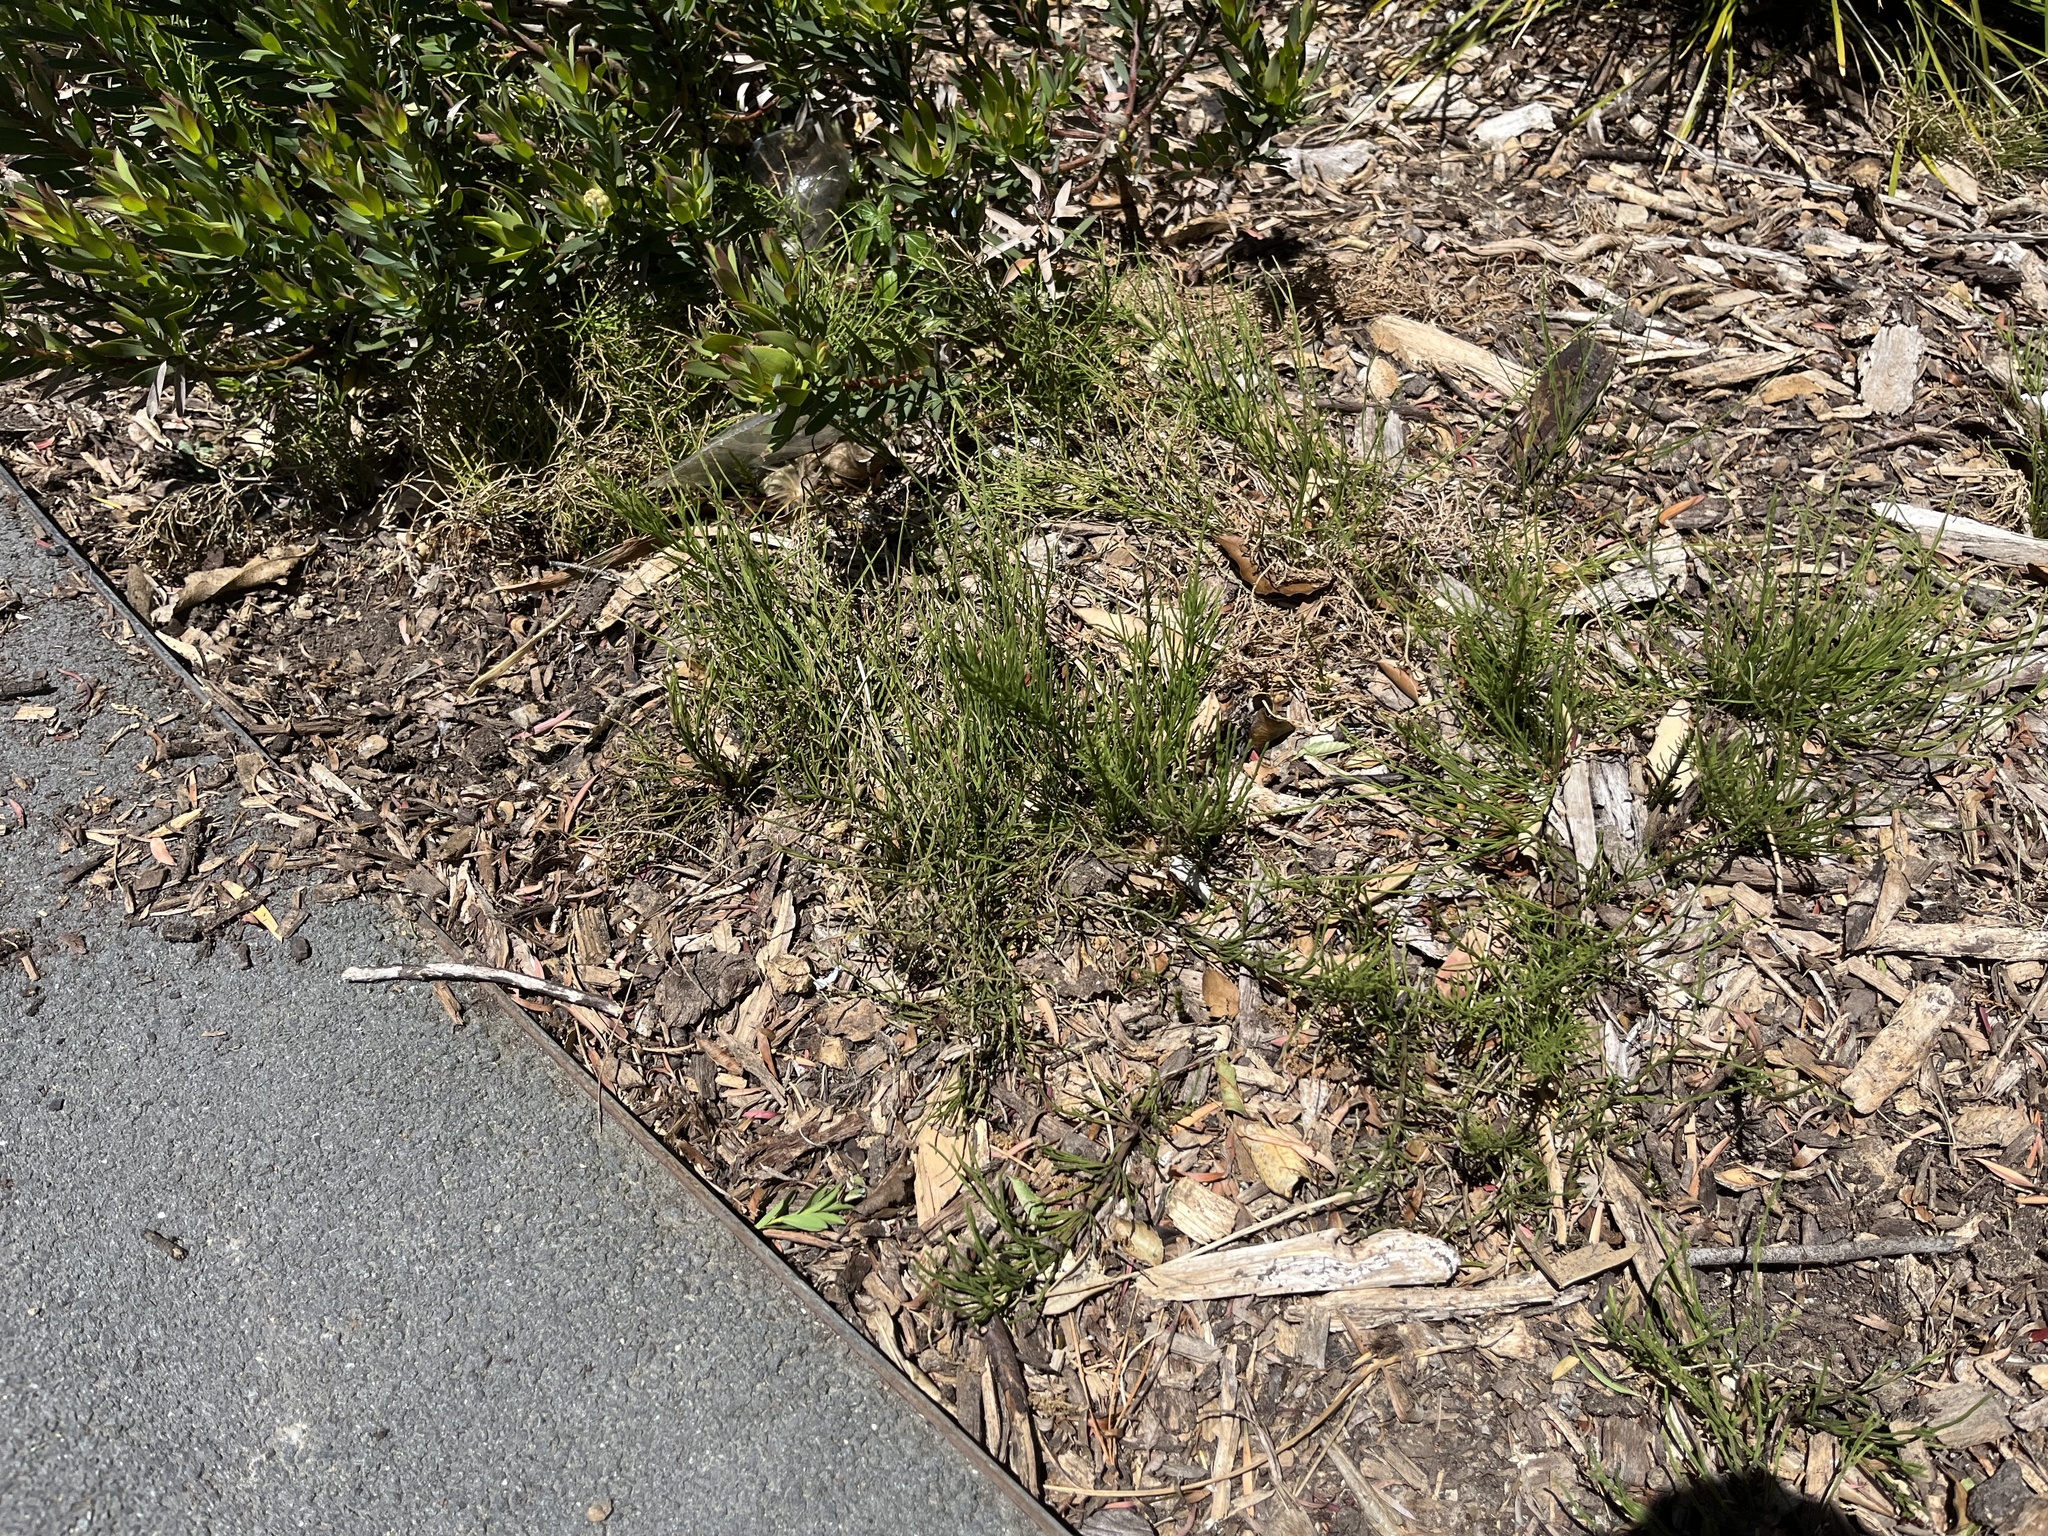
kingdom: Plantae
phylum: Tracheophyta
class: Polypodiopsida
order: Equisetales
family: Equisetaceae
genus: Equisetum
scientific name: Equisetum arvense
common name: Field horsetail
